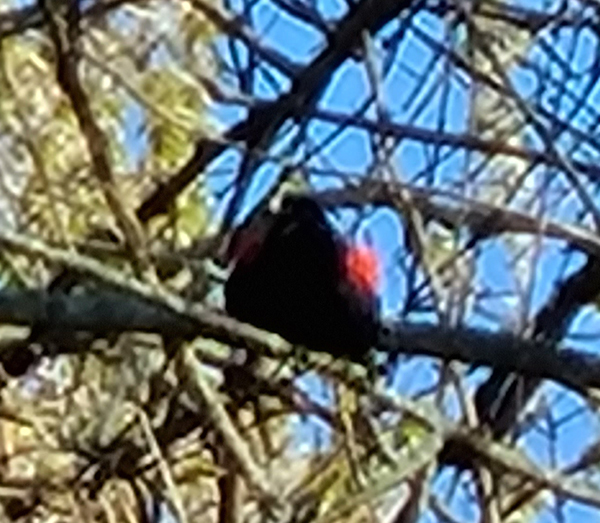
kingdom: Animalia
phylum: Chordata
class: Aves
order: Passeriformes
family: Icteridae
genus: Agelaius
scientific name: Agelaius phoeniceus
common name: Red-winged blackbird
